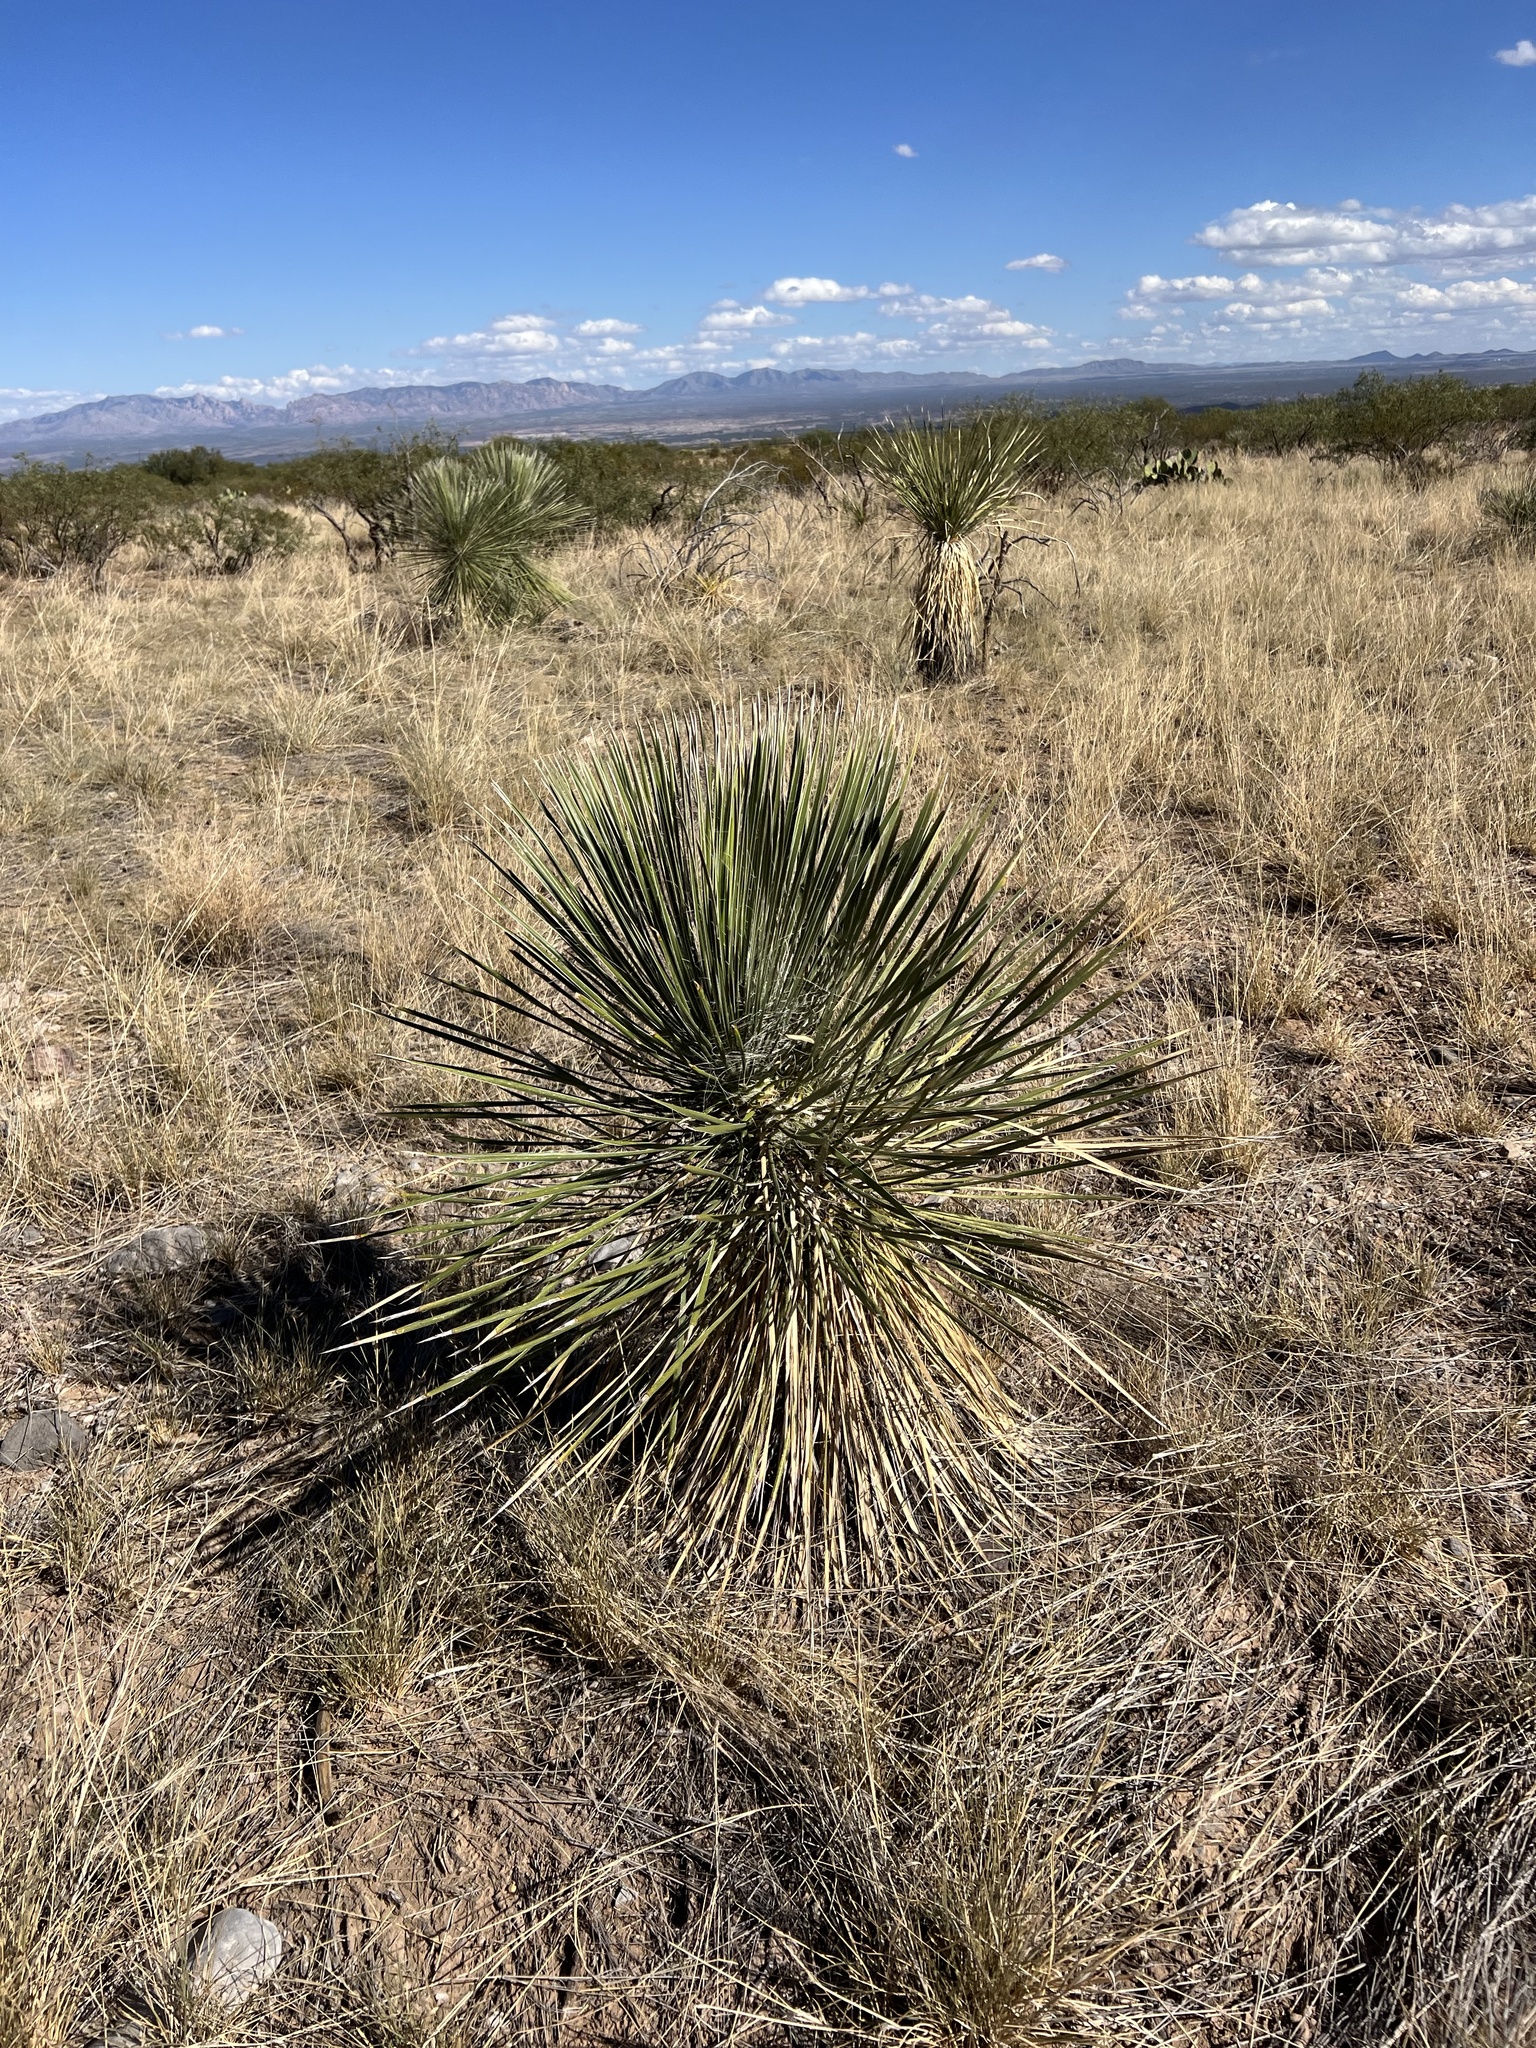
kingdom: Plantae
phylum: Tracheophyta
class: Liliopsida
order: Asparagales
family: Asparagaceae
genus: Yucca
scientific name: Yucca elata
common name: Palmella
